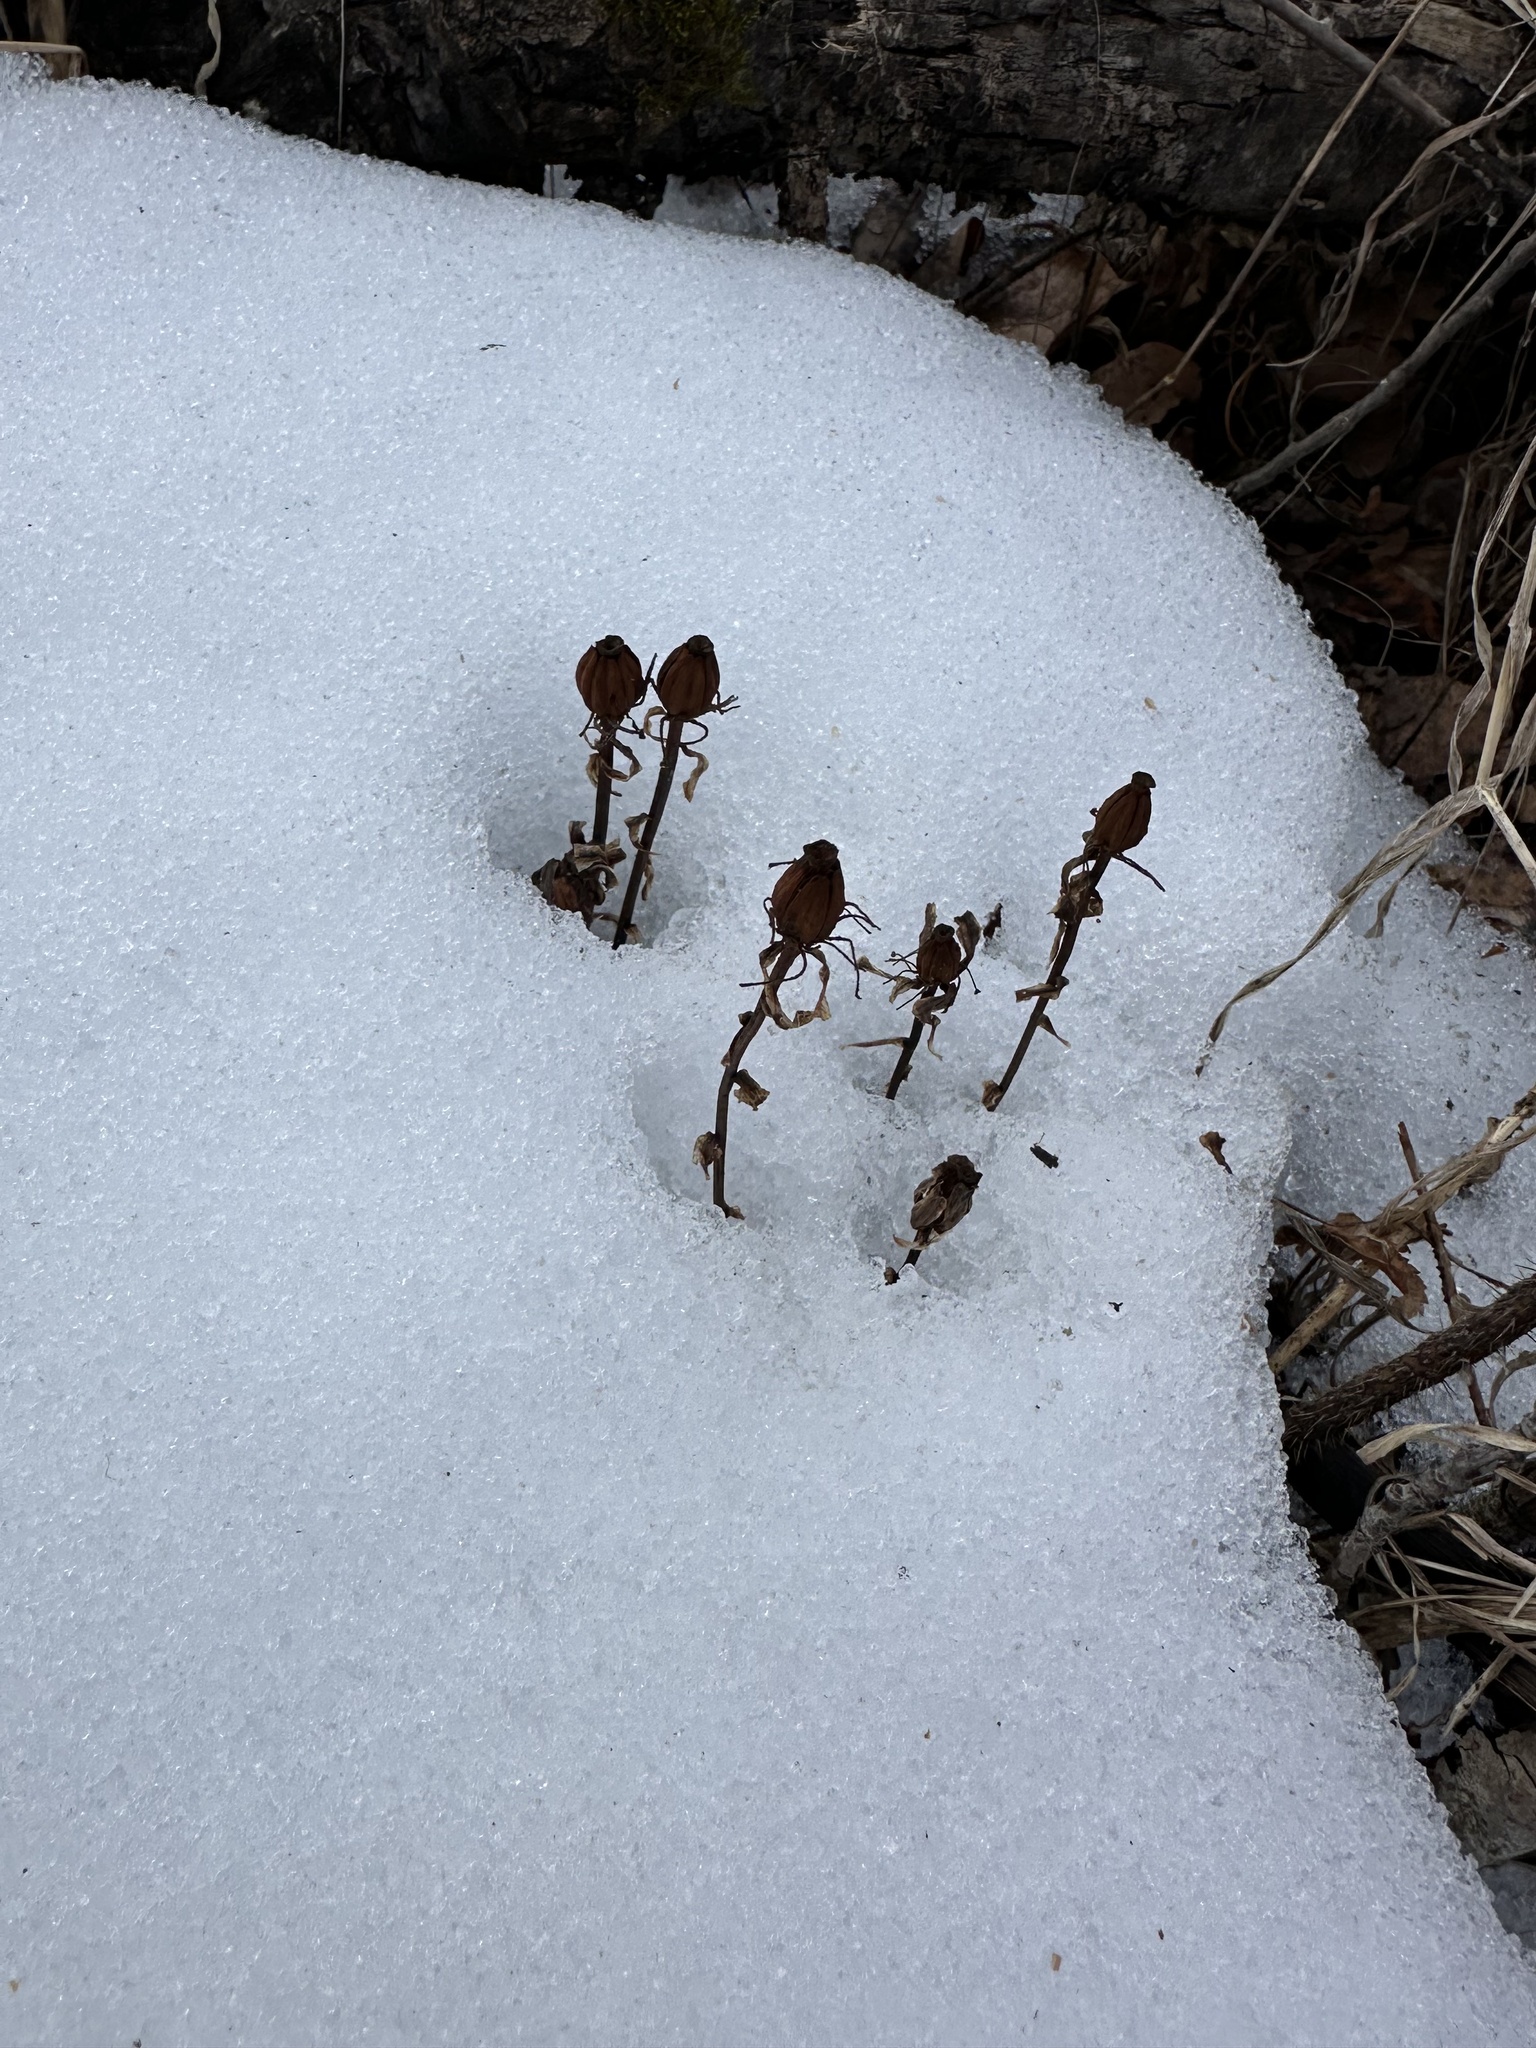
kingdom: Plantae
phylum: Tracheophyta
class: Magnoliopsida
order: Ericales
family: Ericaceae
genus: Monotropa
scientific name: Monotropa uniflora
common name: Convulsion root
